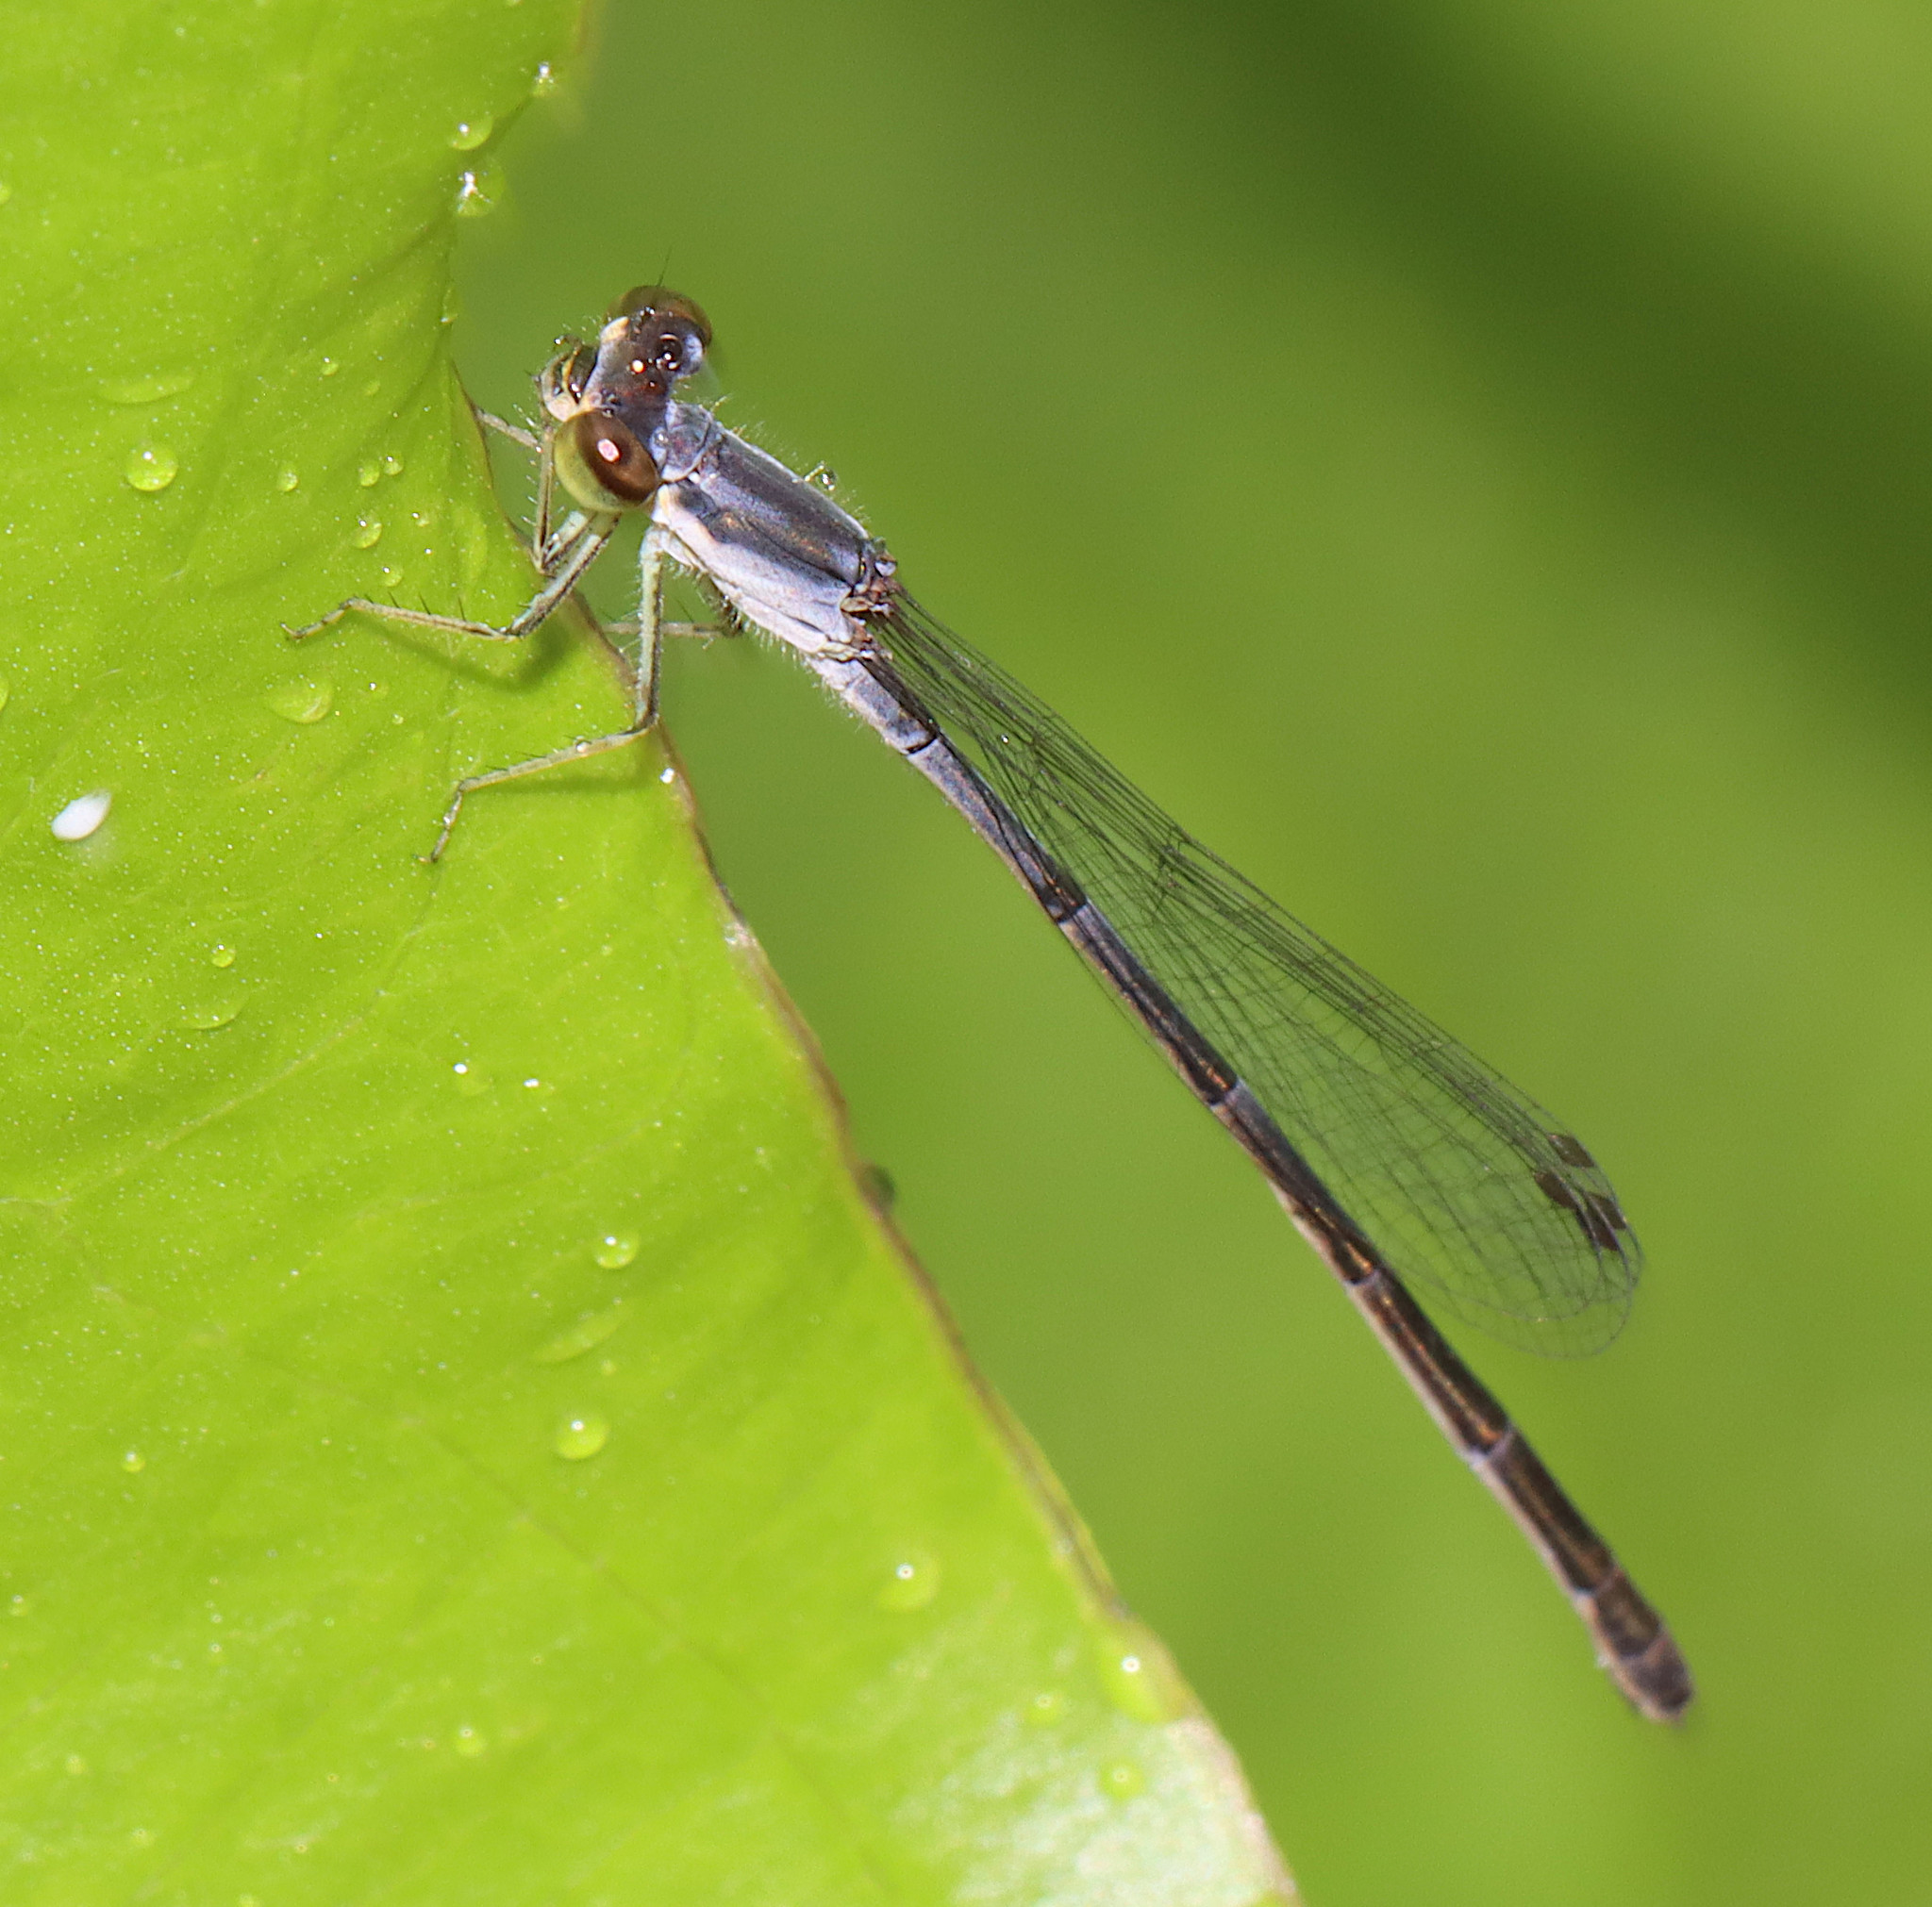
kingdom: Animalia
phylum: Arthropoda
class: Insecta
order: Odonata
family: Coenagrionidae
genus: Ischnura
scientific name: Ischnura posita
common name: Fragile forktail
